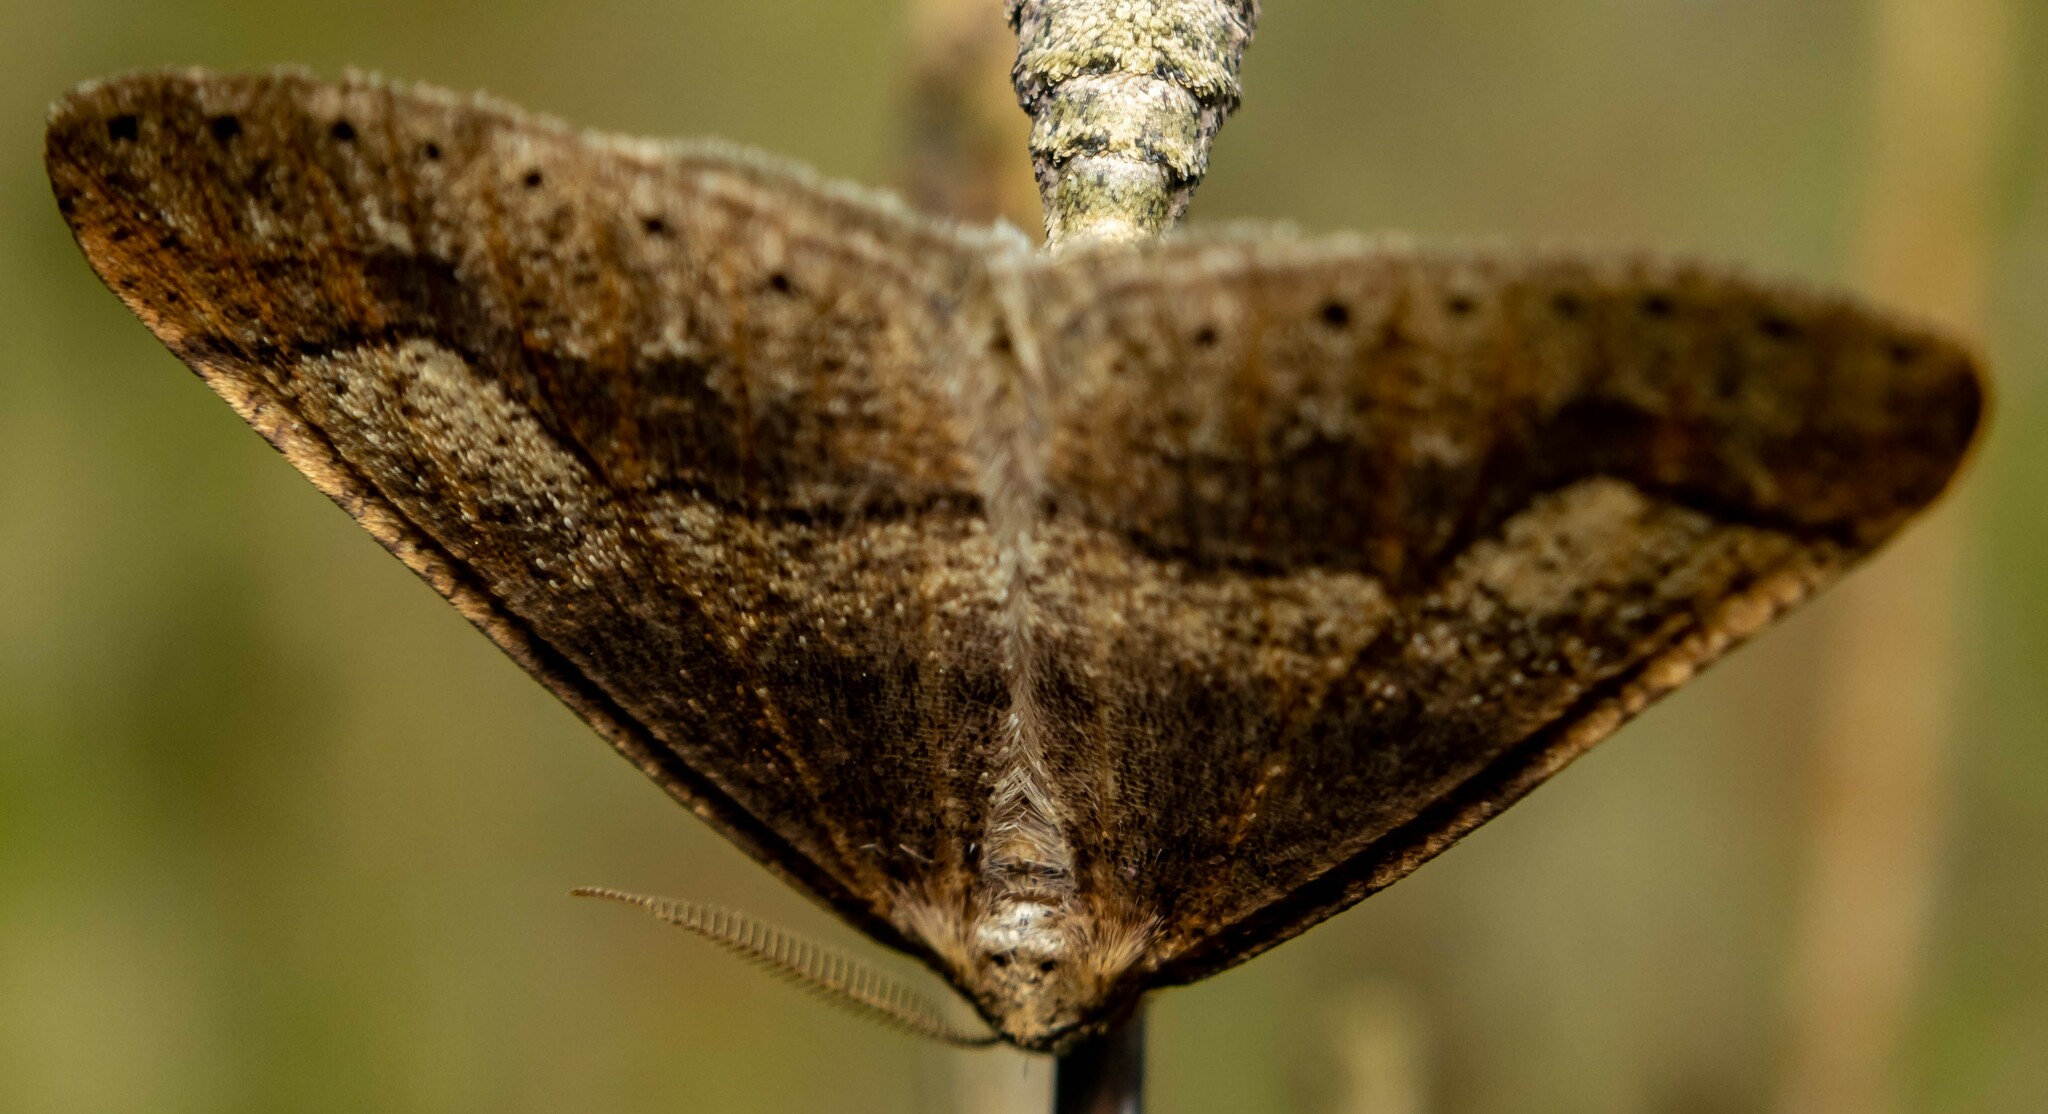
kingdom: Animalia
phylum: Arthropoda
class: Insecta
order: Lepidoptera
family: Geometridae
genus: Agriopis
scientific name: Agriopis marginaria
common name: Dotted border
